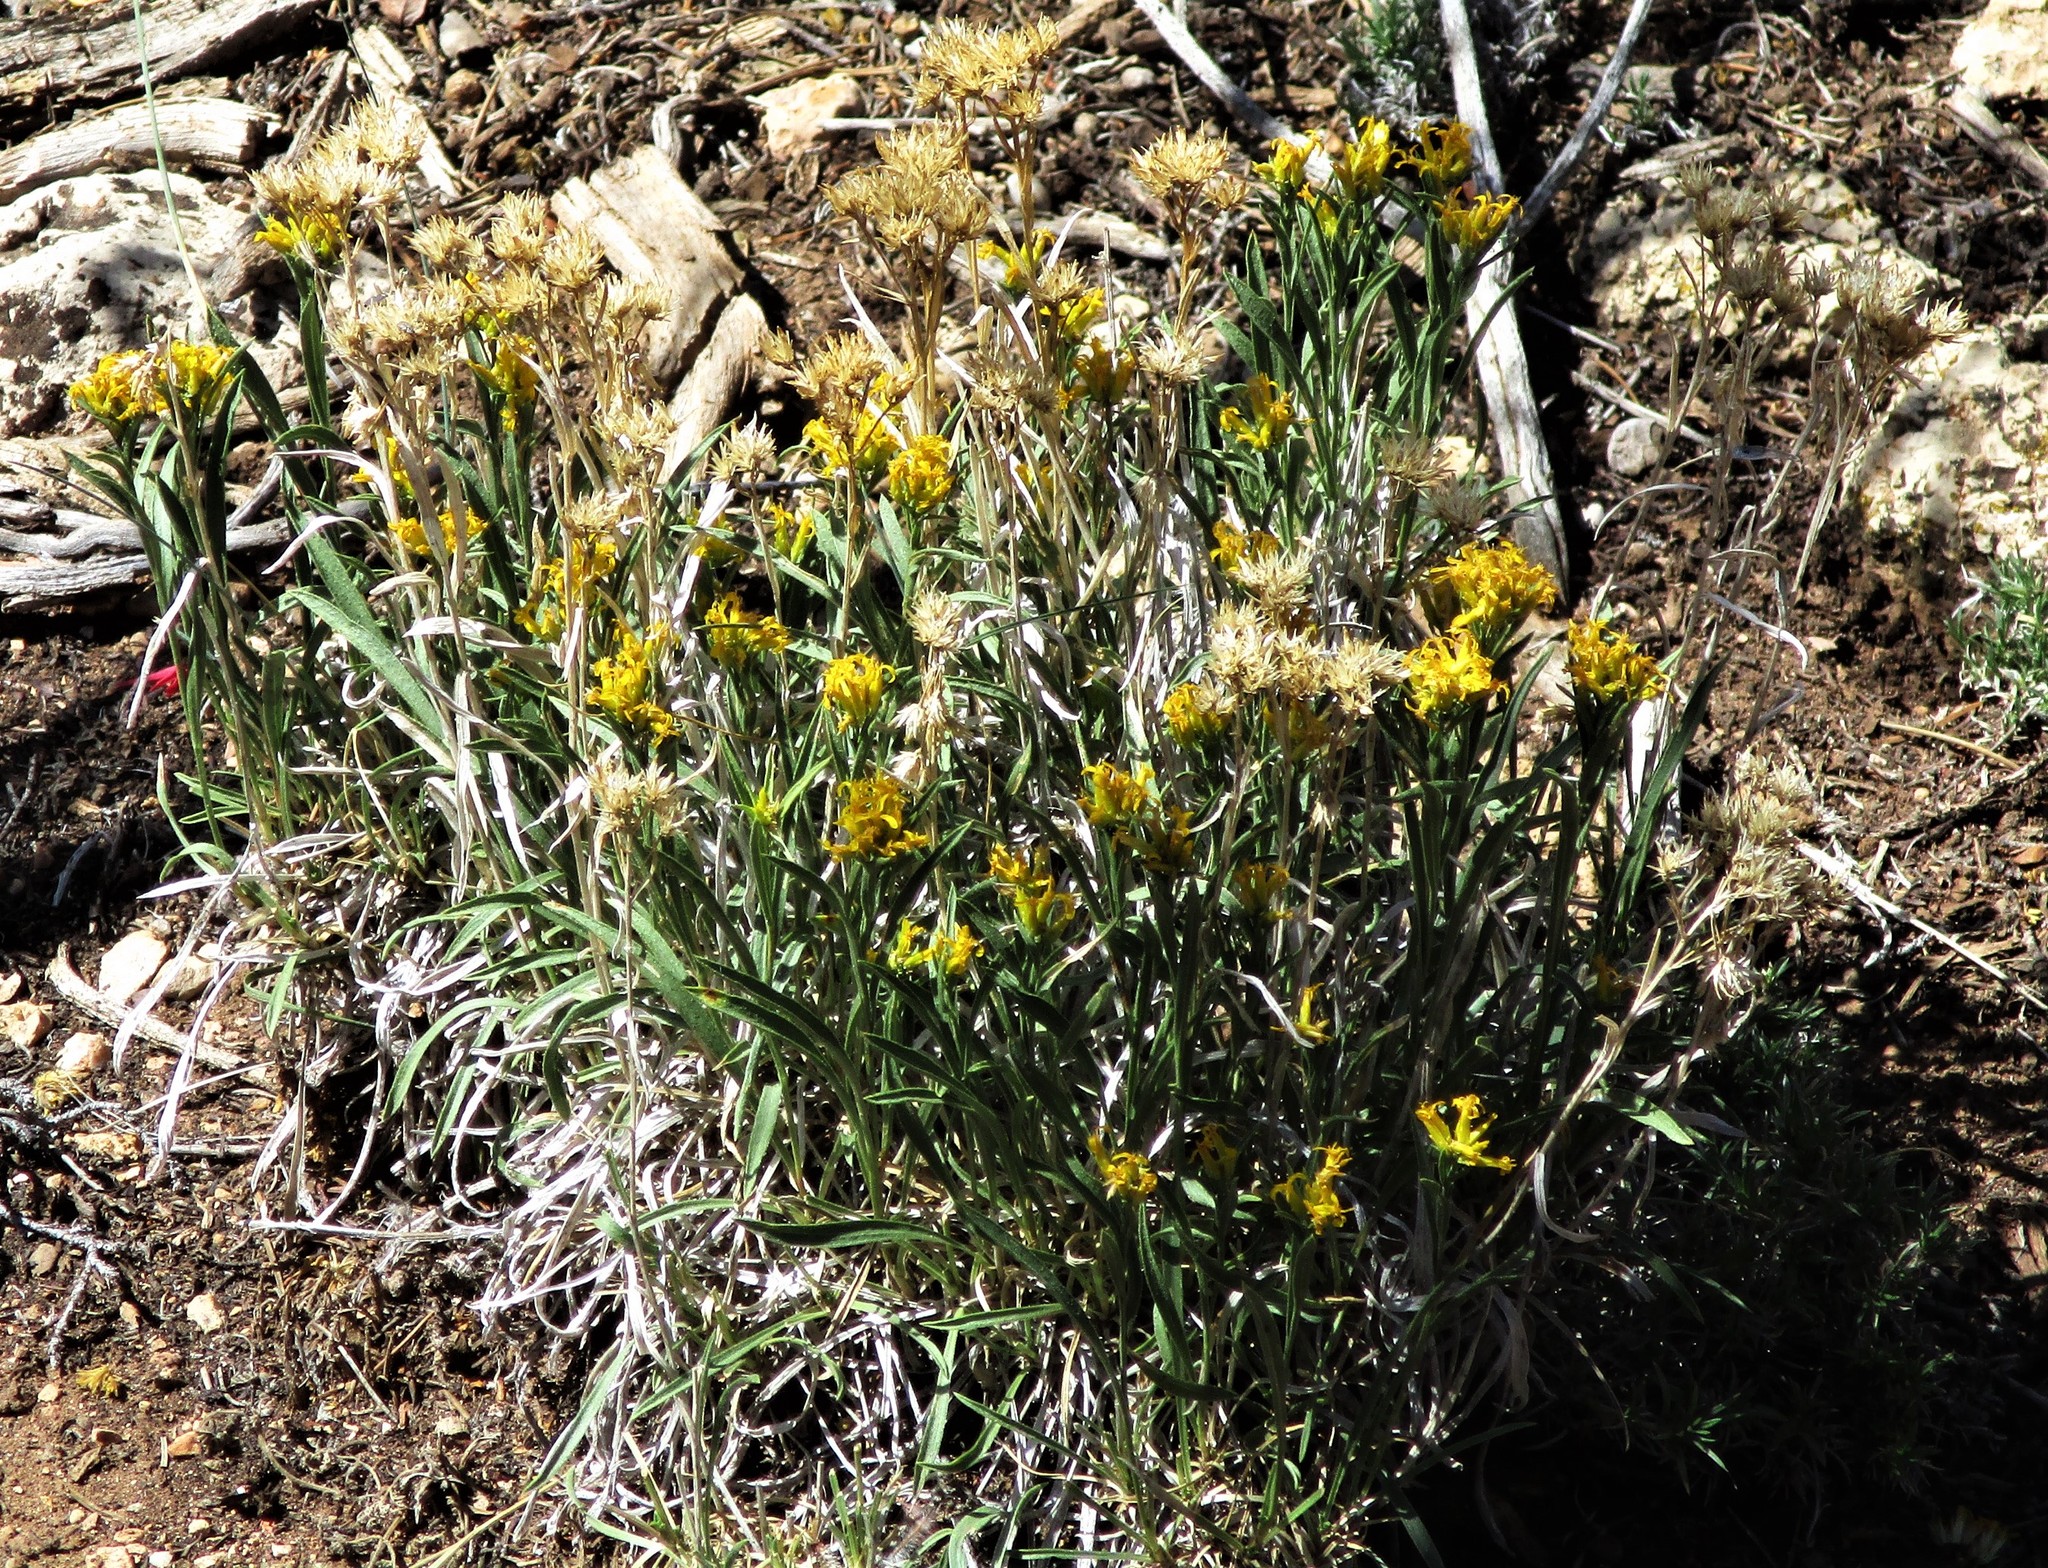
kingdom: Plantae
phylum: Tracheophyta
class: Magnoliopsida
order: Asterales
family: Asteraceae
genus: Petradoria
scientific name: Petradoria pumila
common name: Rock-goldenrod
